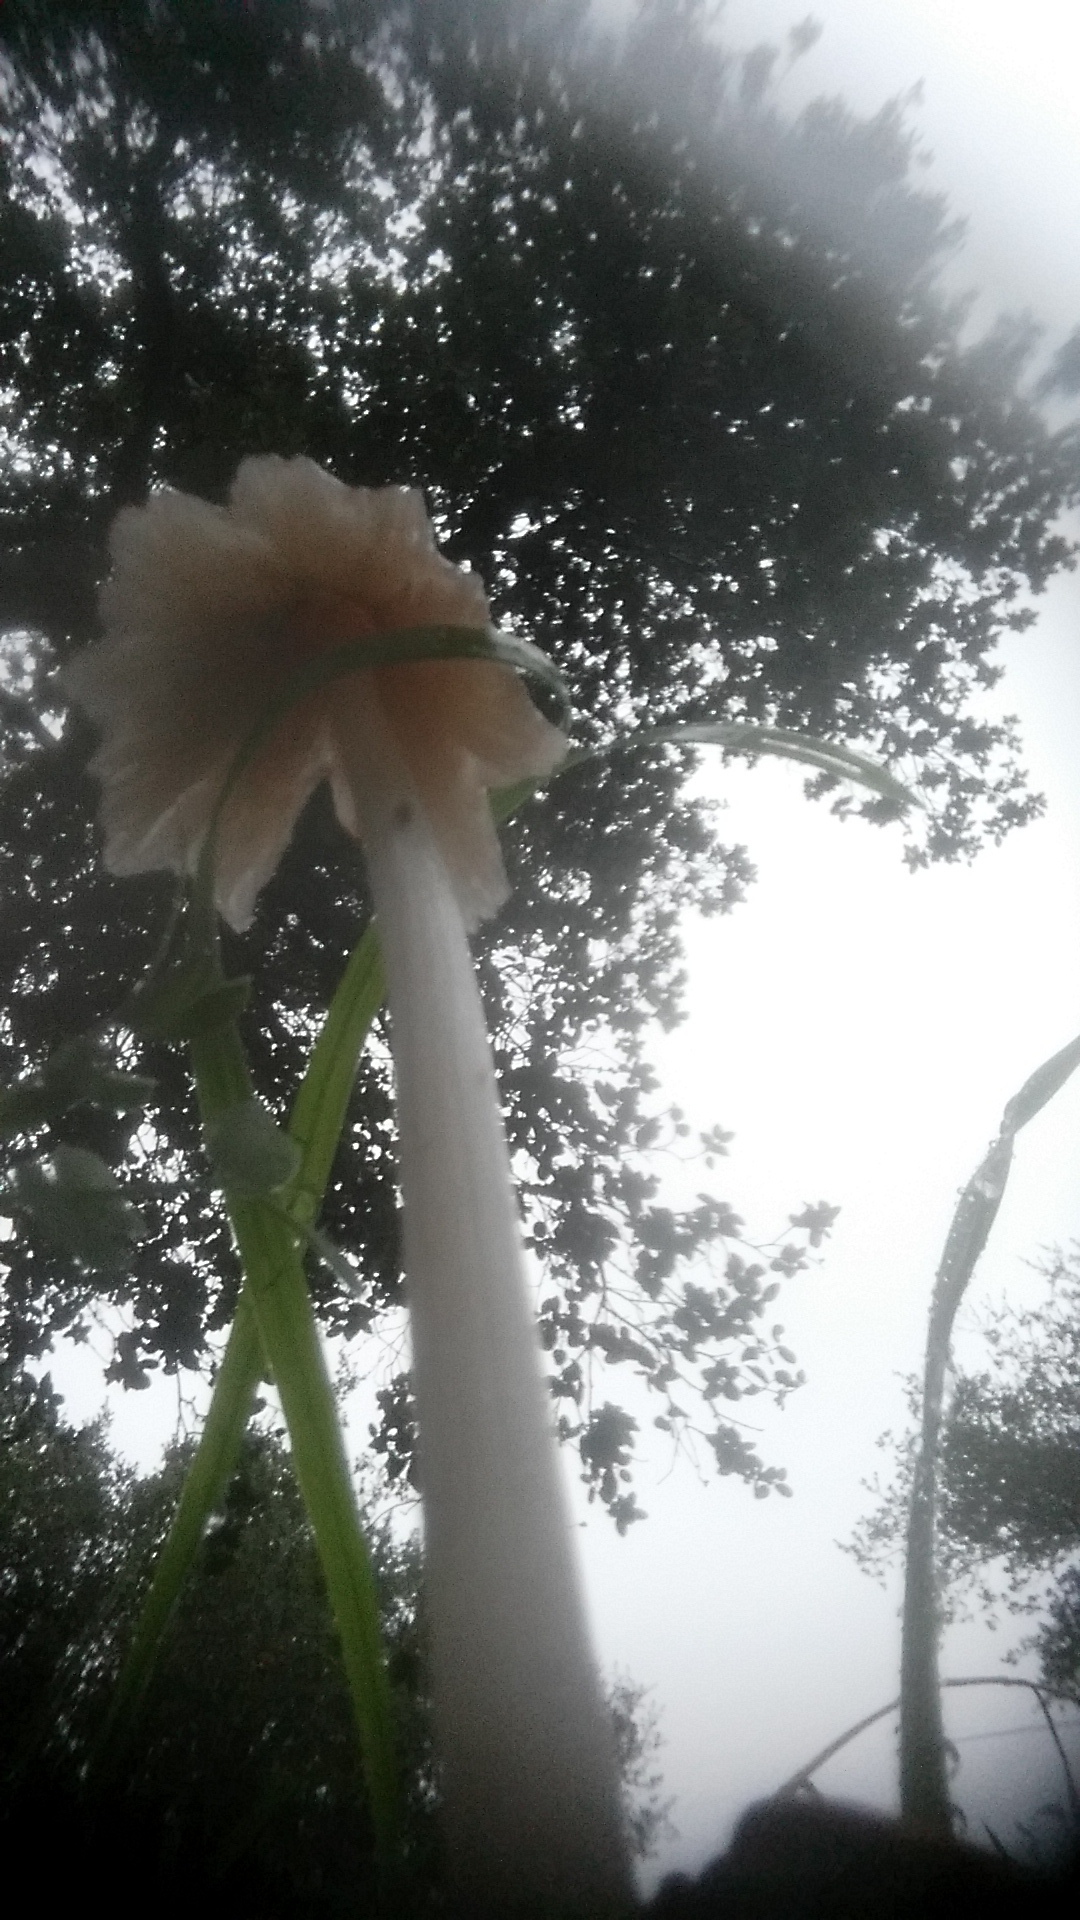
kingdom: Fungi
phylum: Basidiomycota
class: Agaricomycetes
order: Agaricales
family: Psathyrellaceae
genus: Coprinellus
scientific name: Coprinellus radians
